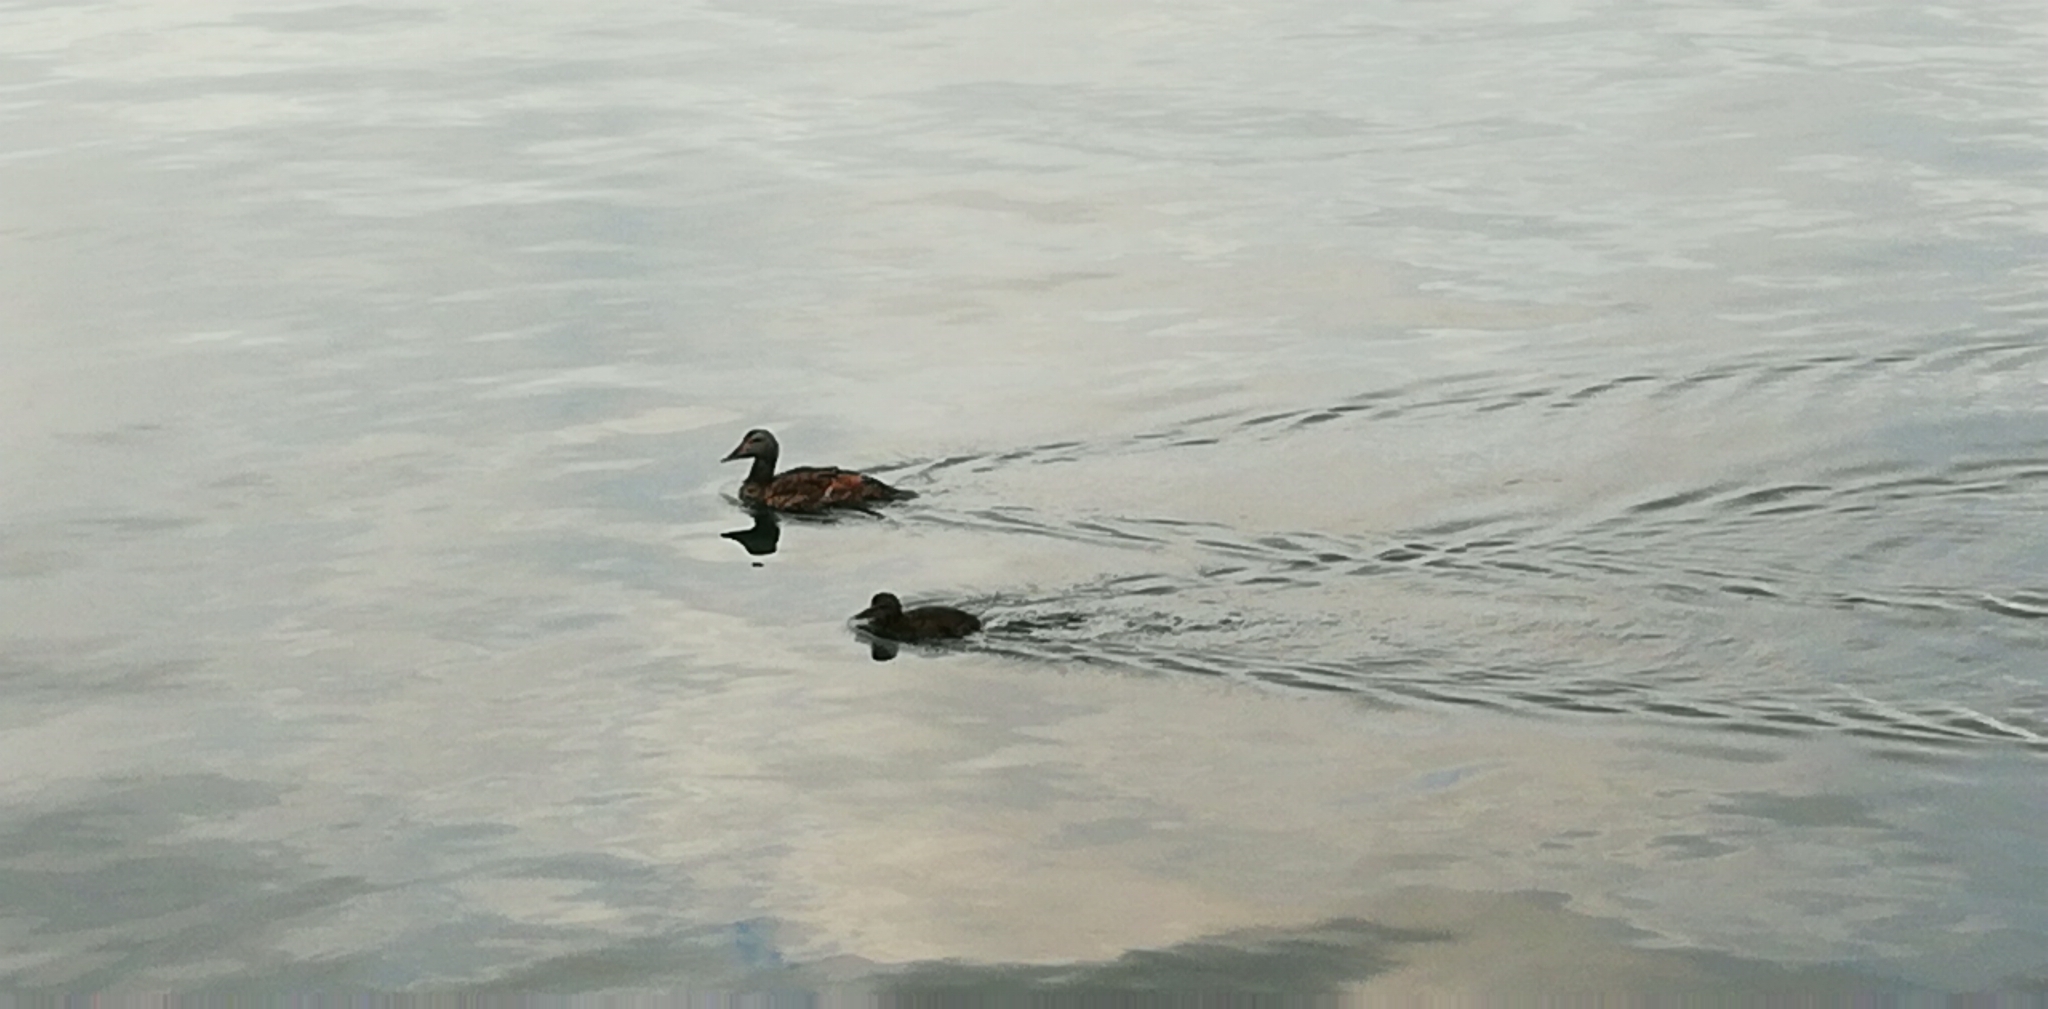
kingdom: Animalia
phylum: Chordata
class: Aves
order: Anseriformes
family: Anatidae
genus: Somateria
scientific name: Somateria mollissima
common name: Common eider
